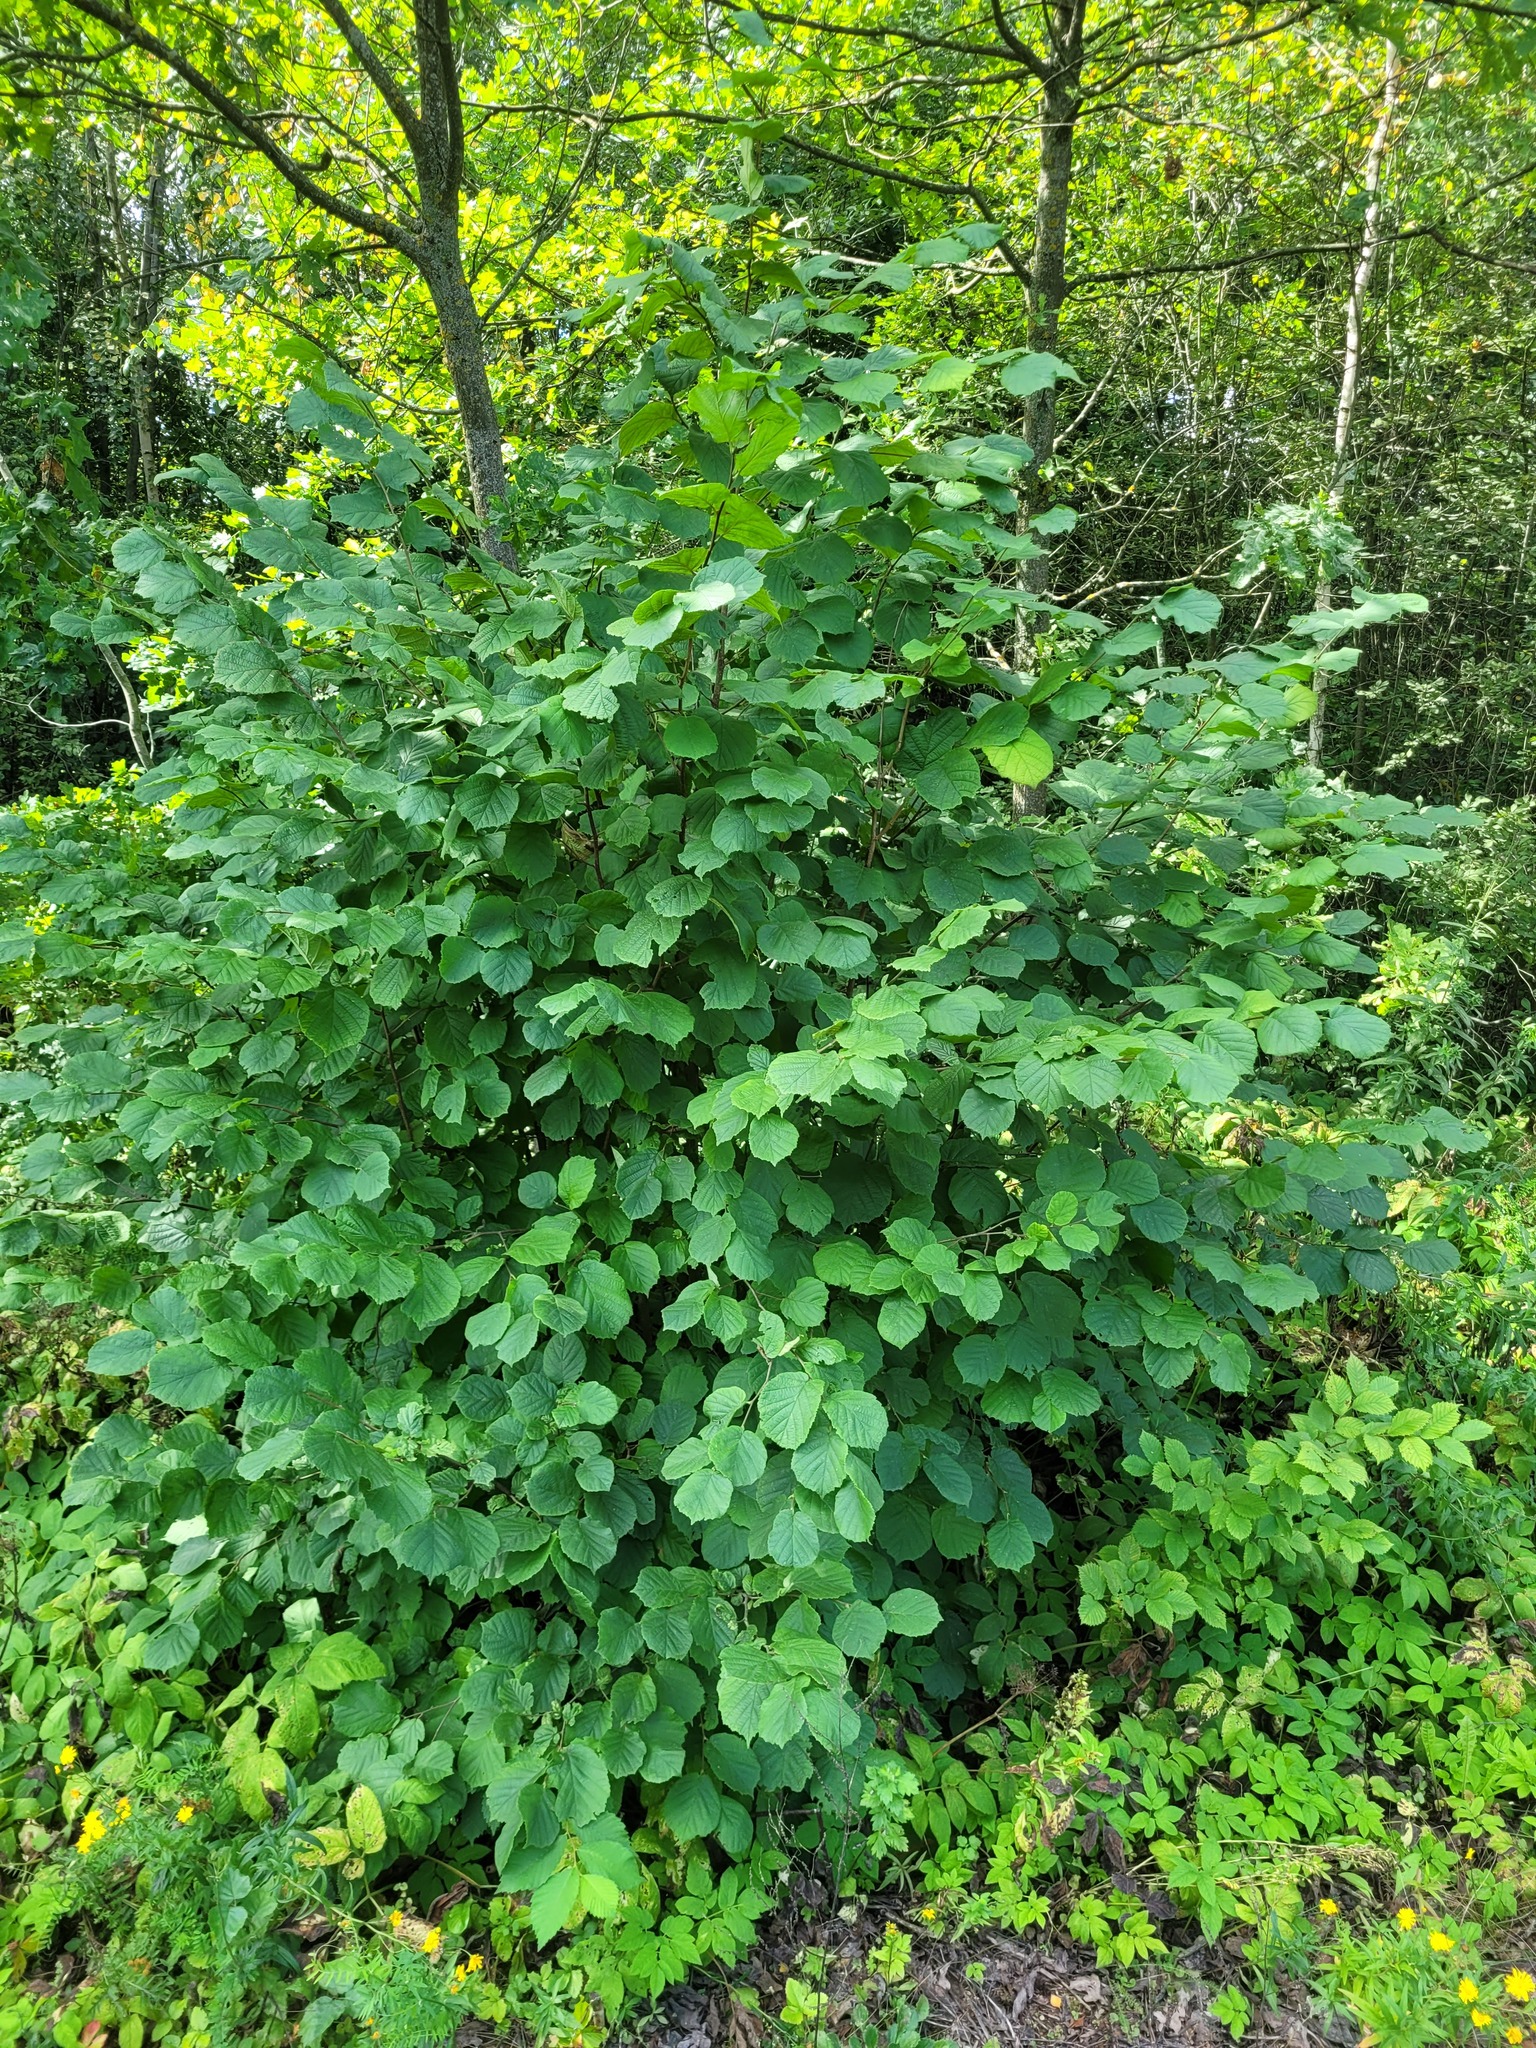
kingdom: Plantae
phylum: Tracheophyta
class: Magnoliopsida
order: Fagales
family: Betulaceae
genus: Corylus
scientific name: Corylus avellana
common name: European hazel
